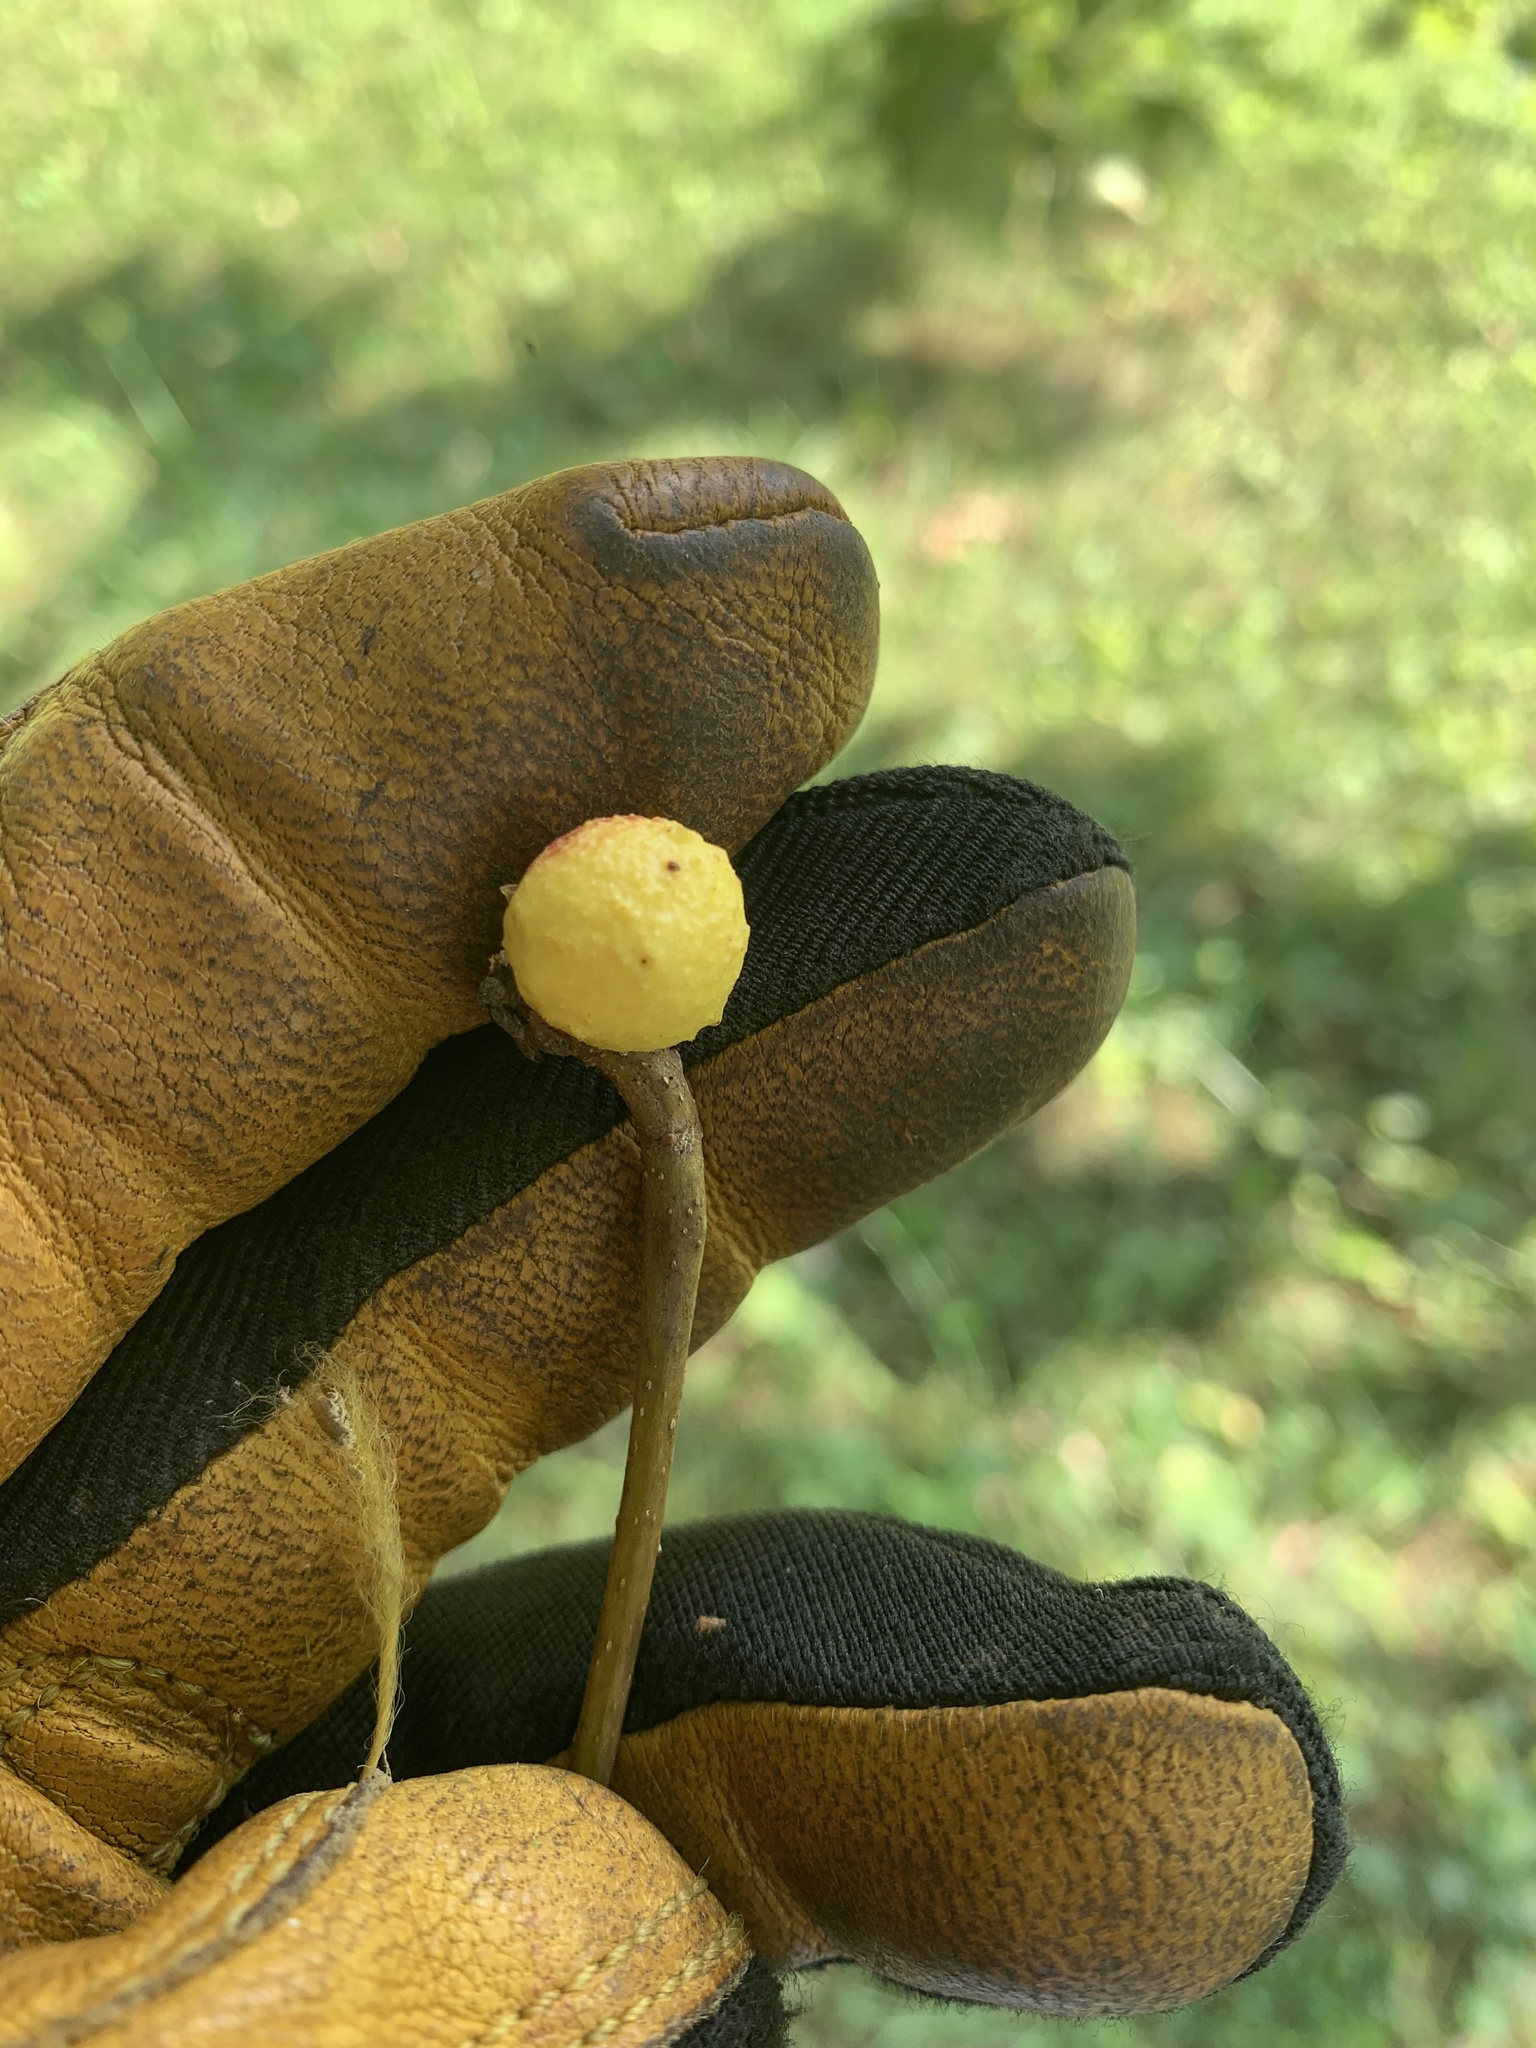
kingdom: Animalia
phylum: Arthropoda
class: Insecta
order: Hymenoptera
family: Cynipidae
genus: Disholcaspis
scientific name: Disholcaspis quercusglobulus
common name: Round bullet gall wasp
